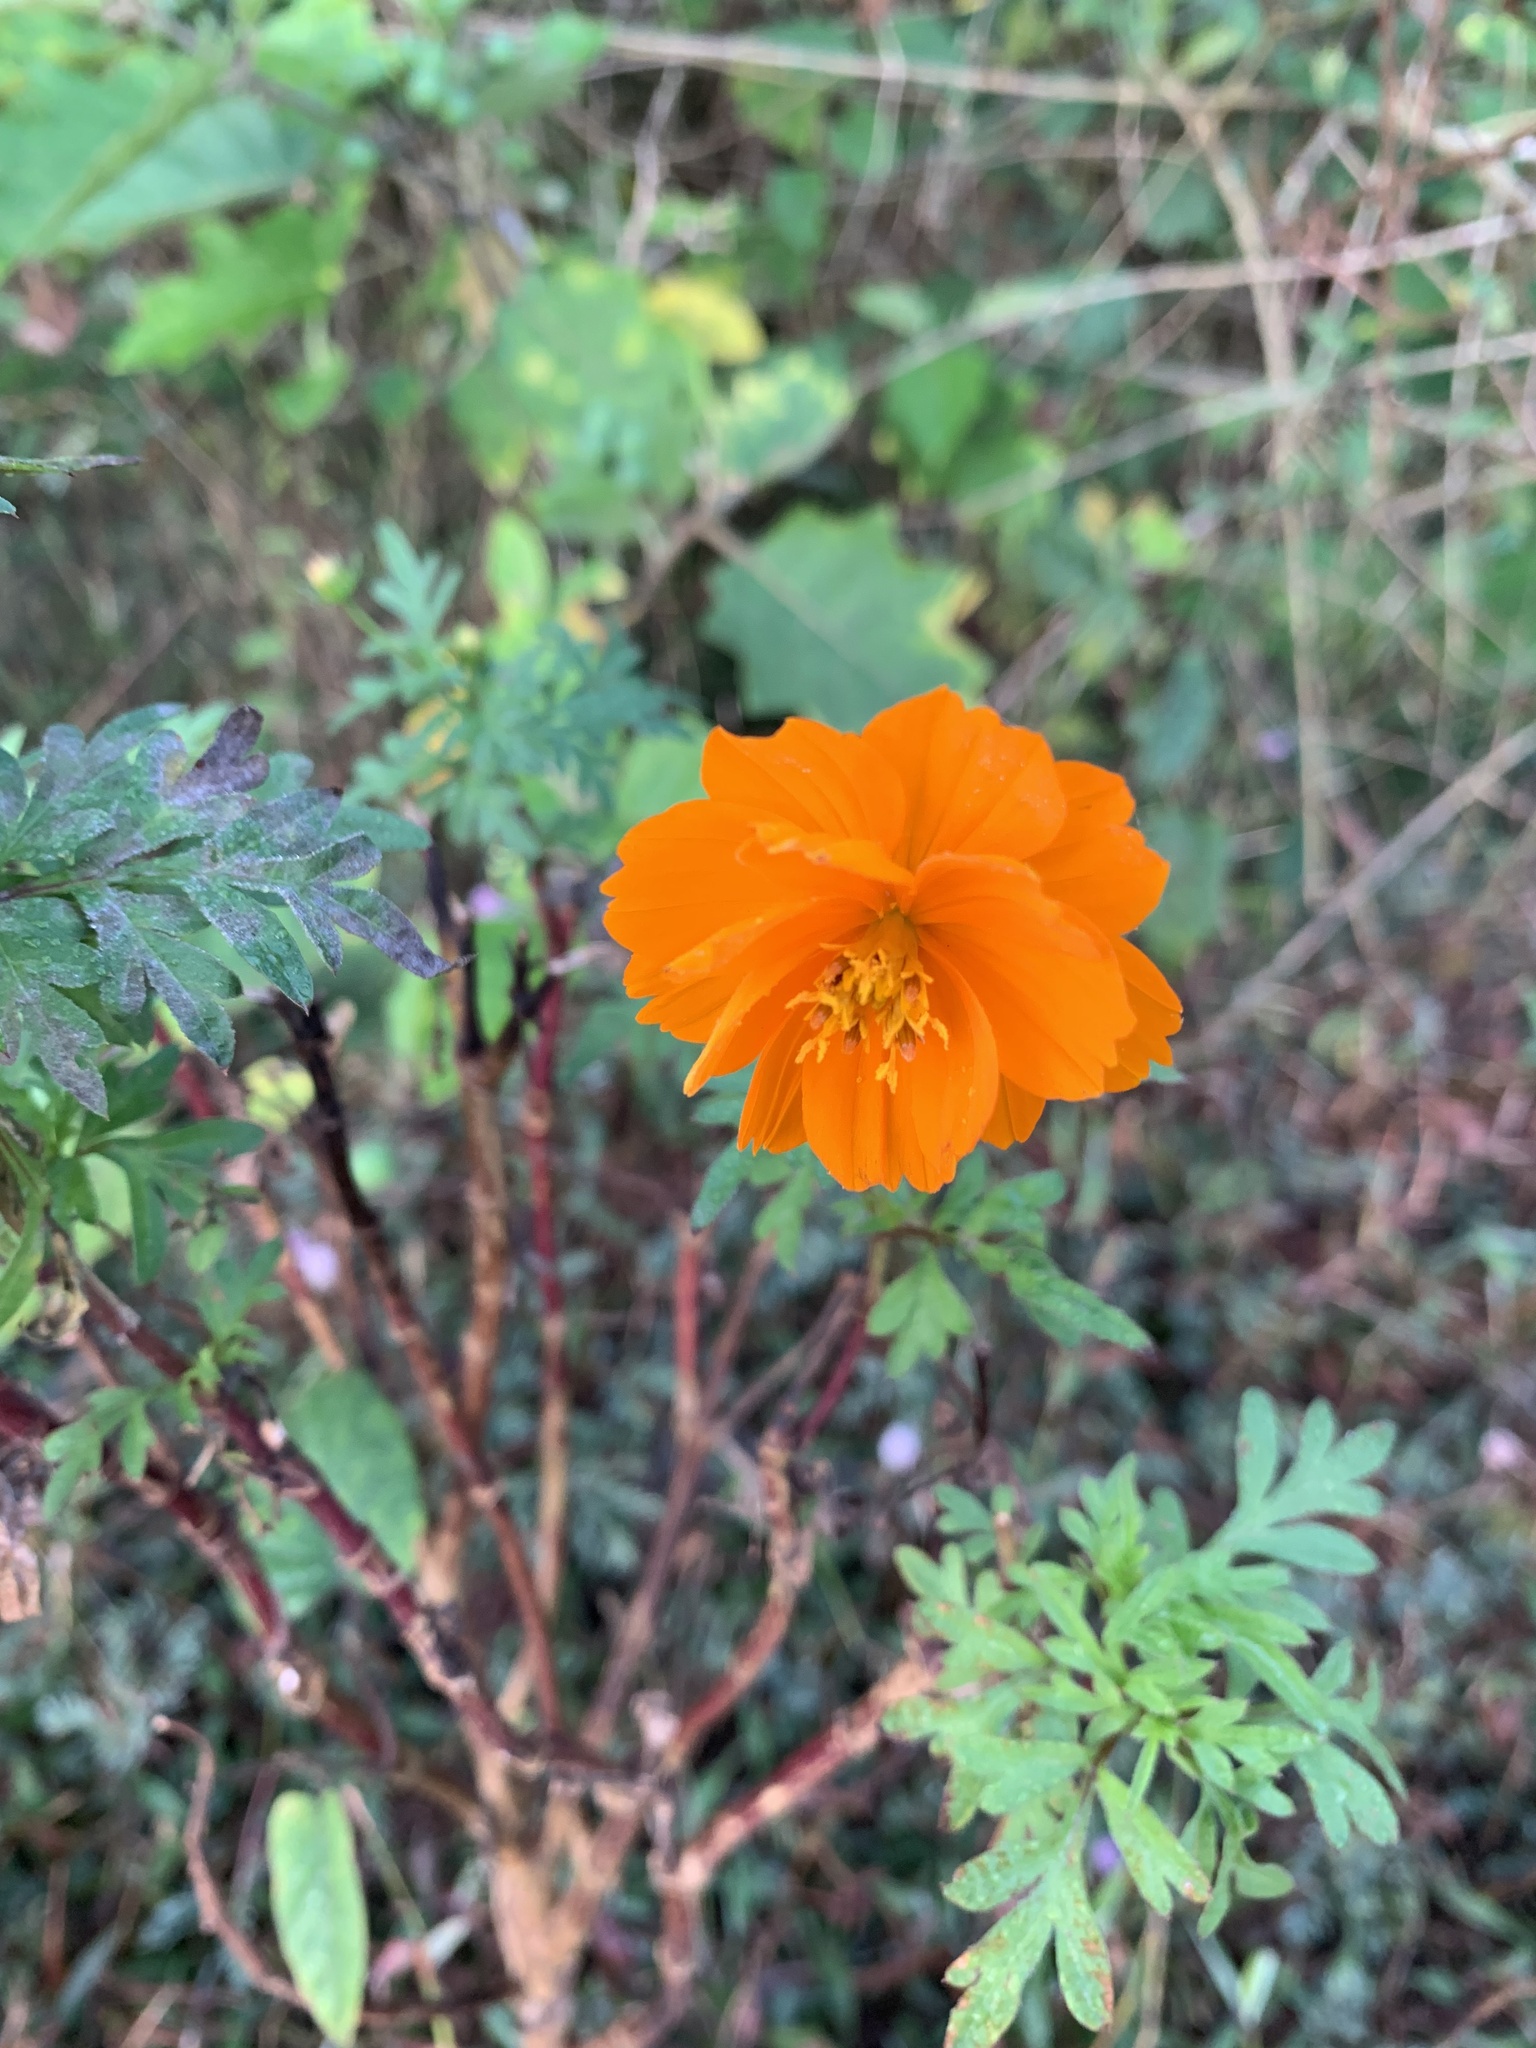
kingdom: Plantae
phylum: Tracheophyta
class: Magnoliopsida
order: Asterales
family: Asteraceae
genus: Cosmos
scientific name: Cosmos sulphureus
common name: Sulphur cosmos
